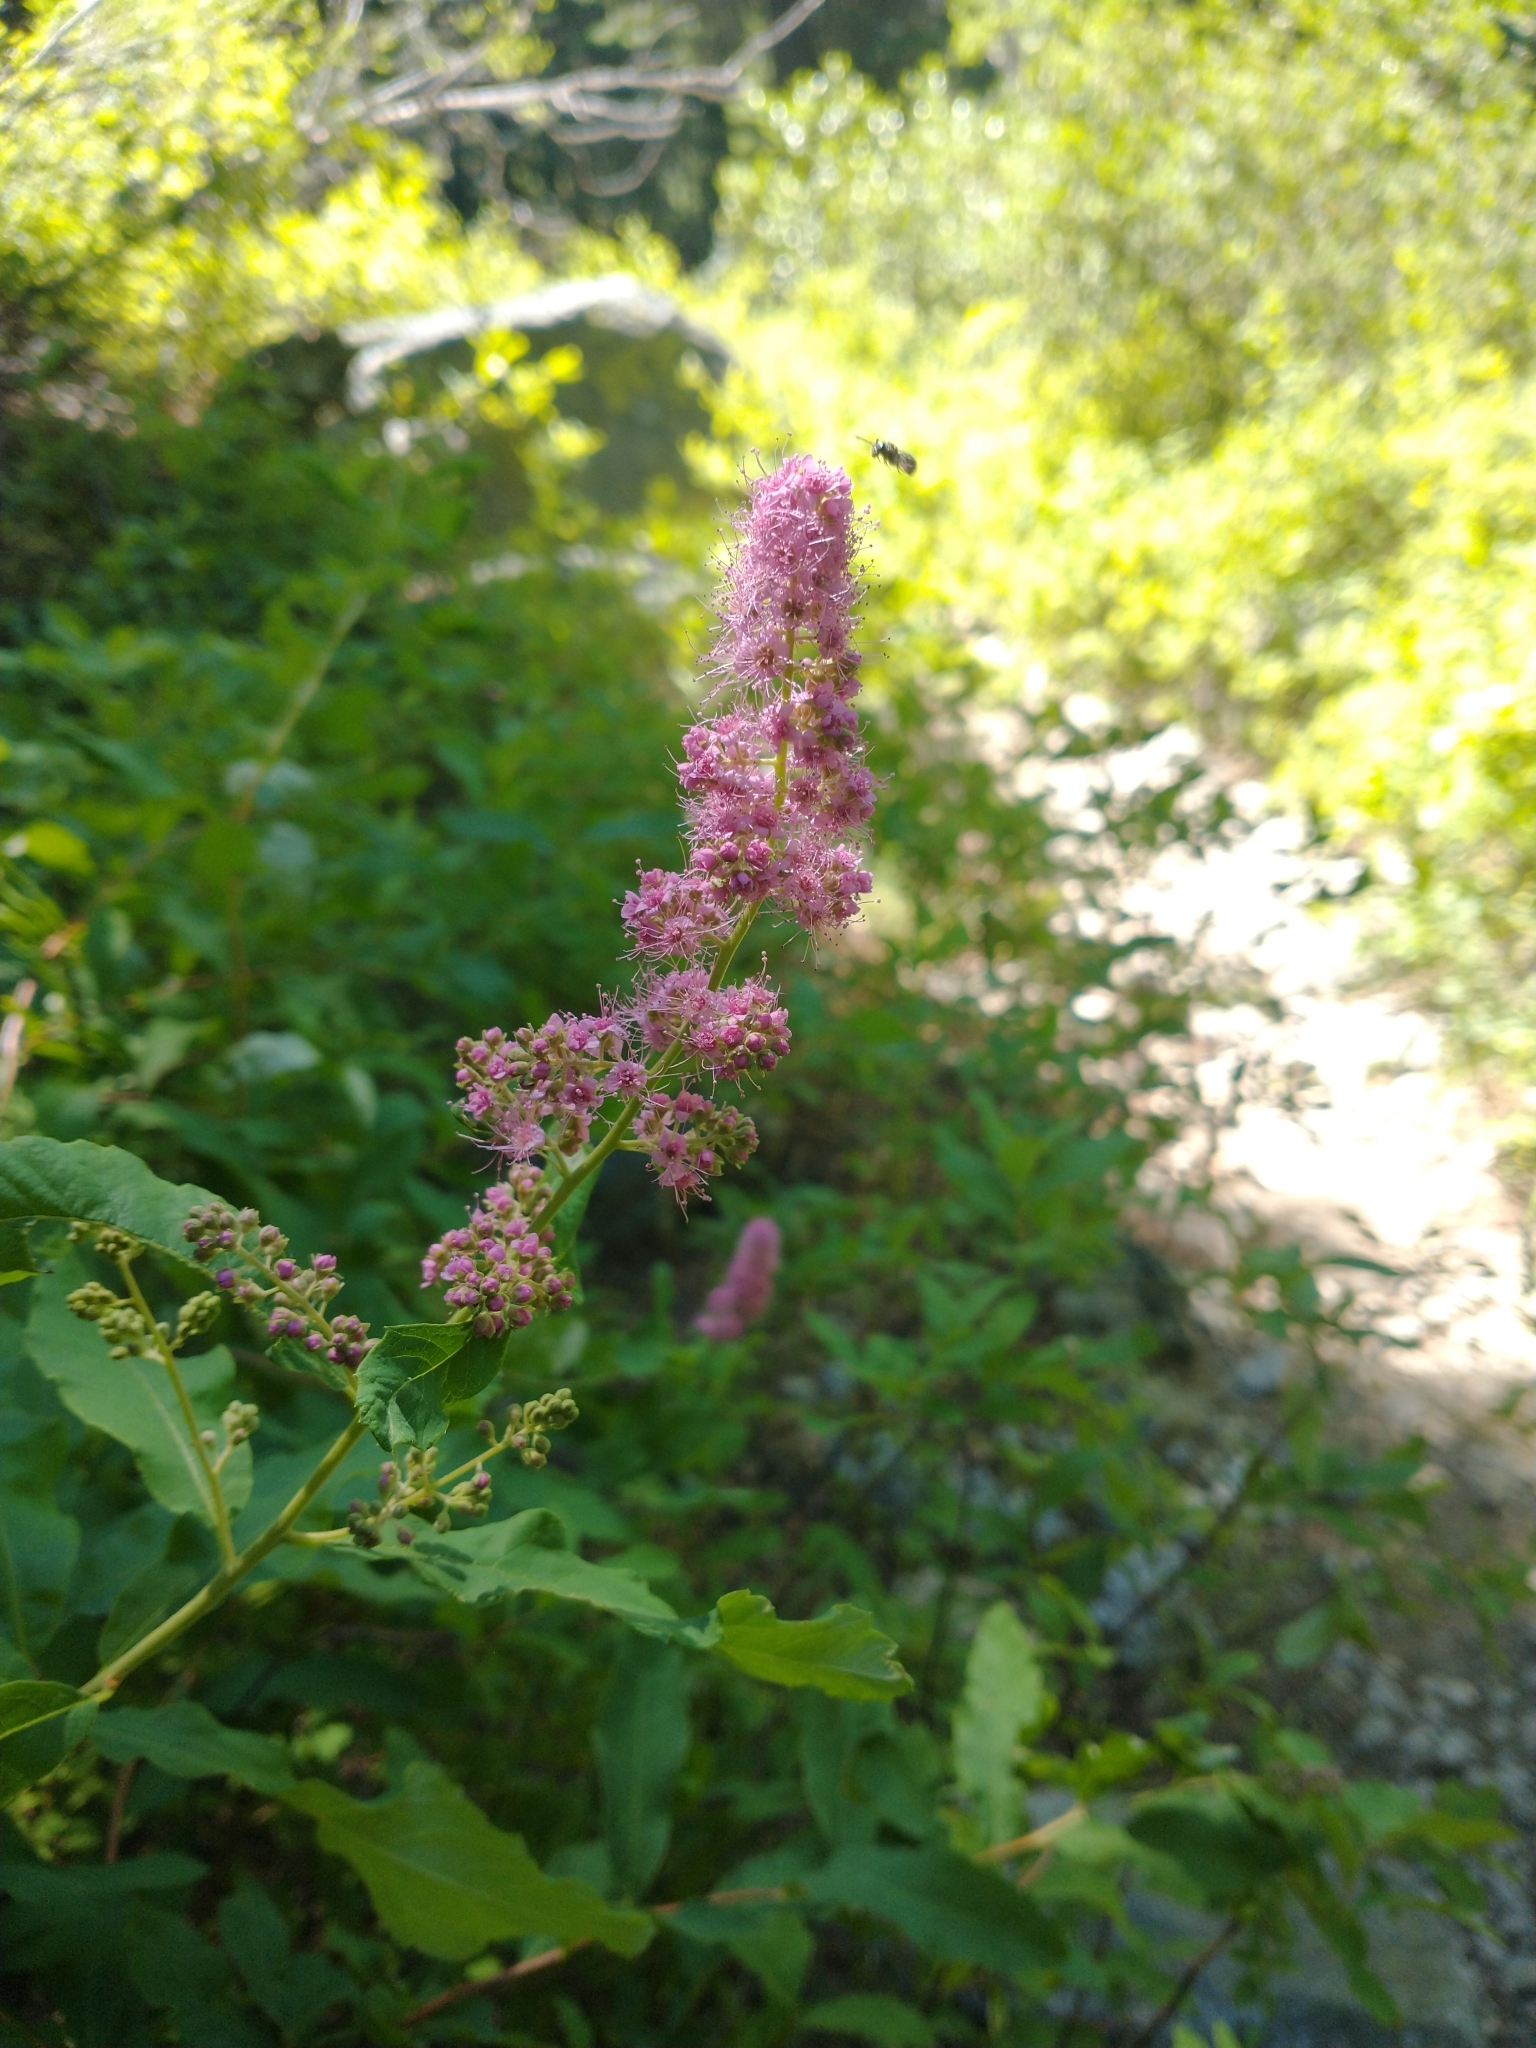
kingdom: Plantae
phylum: Tracheophyta
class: Magnoliopsida
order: Rosales
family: Rosaceae
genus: Spiraea
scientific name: Spiraea douglasii
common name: Steeplebush
